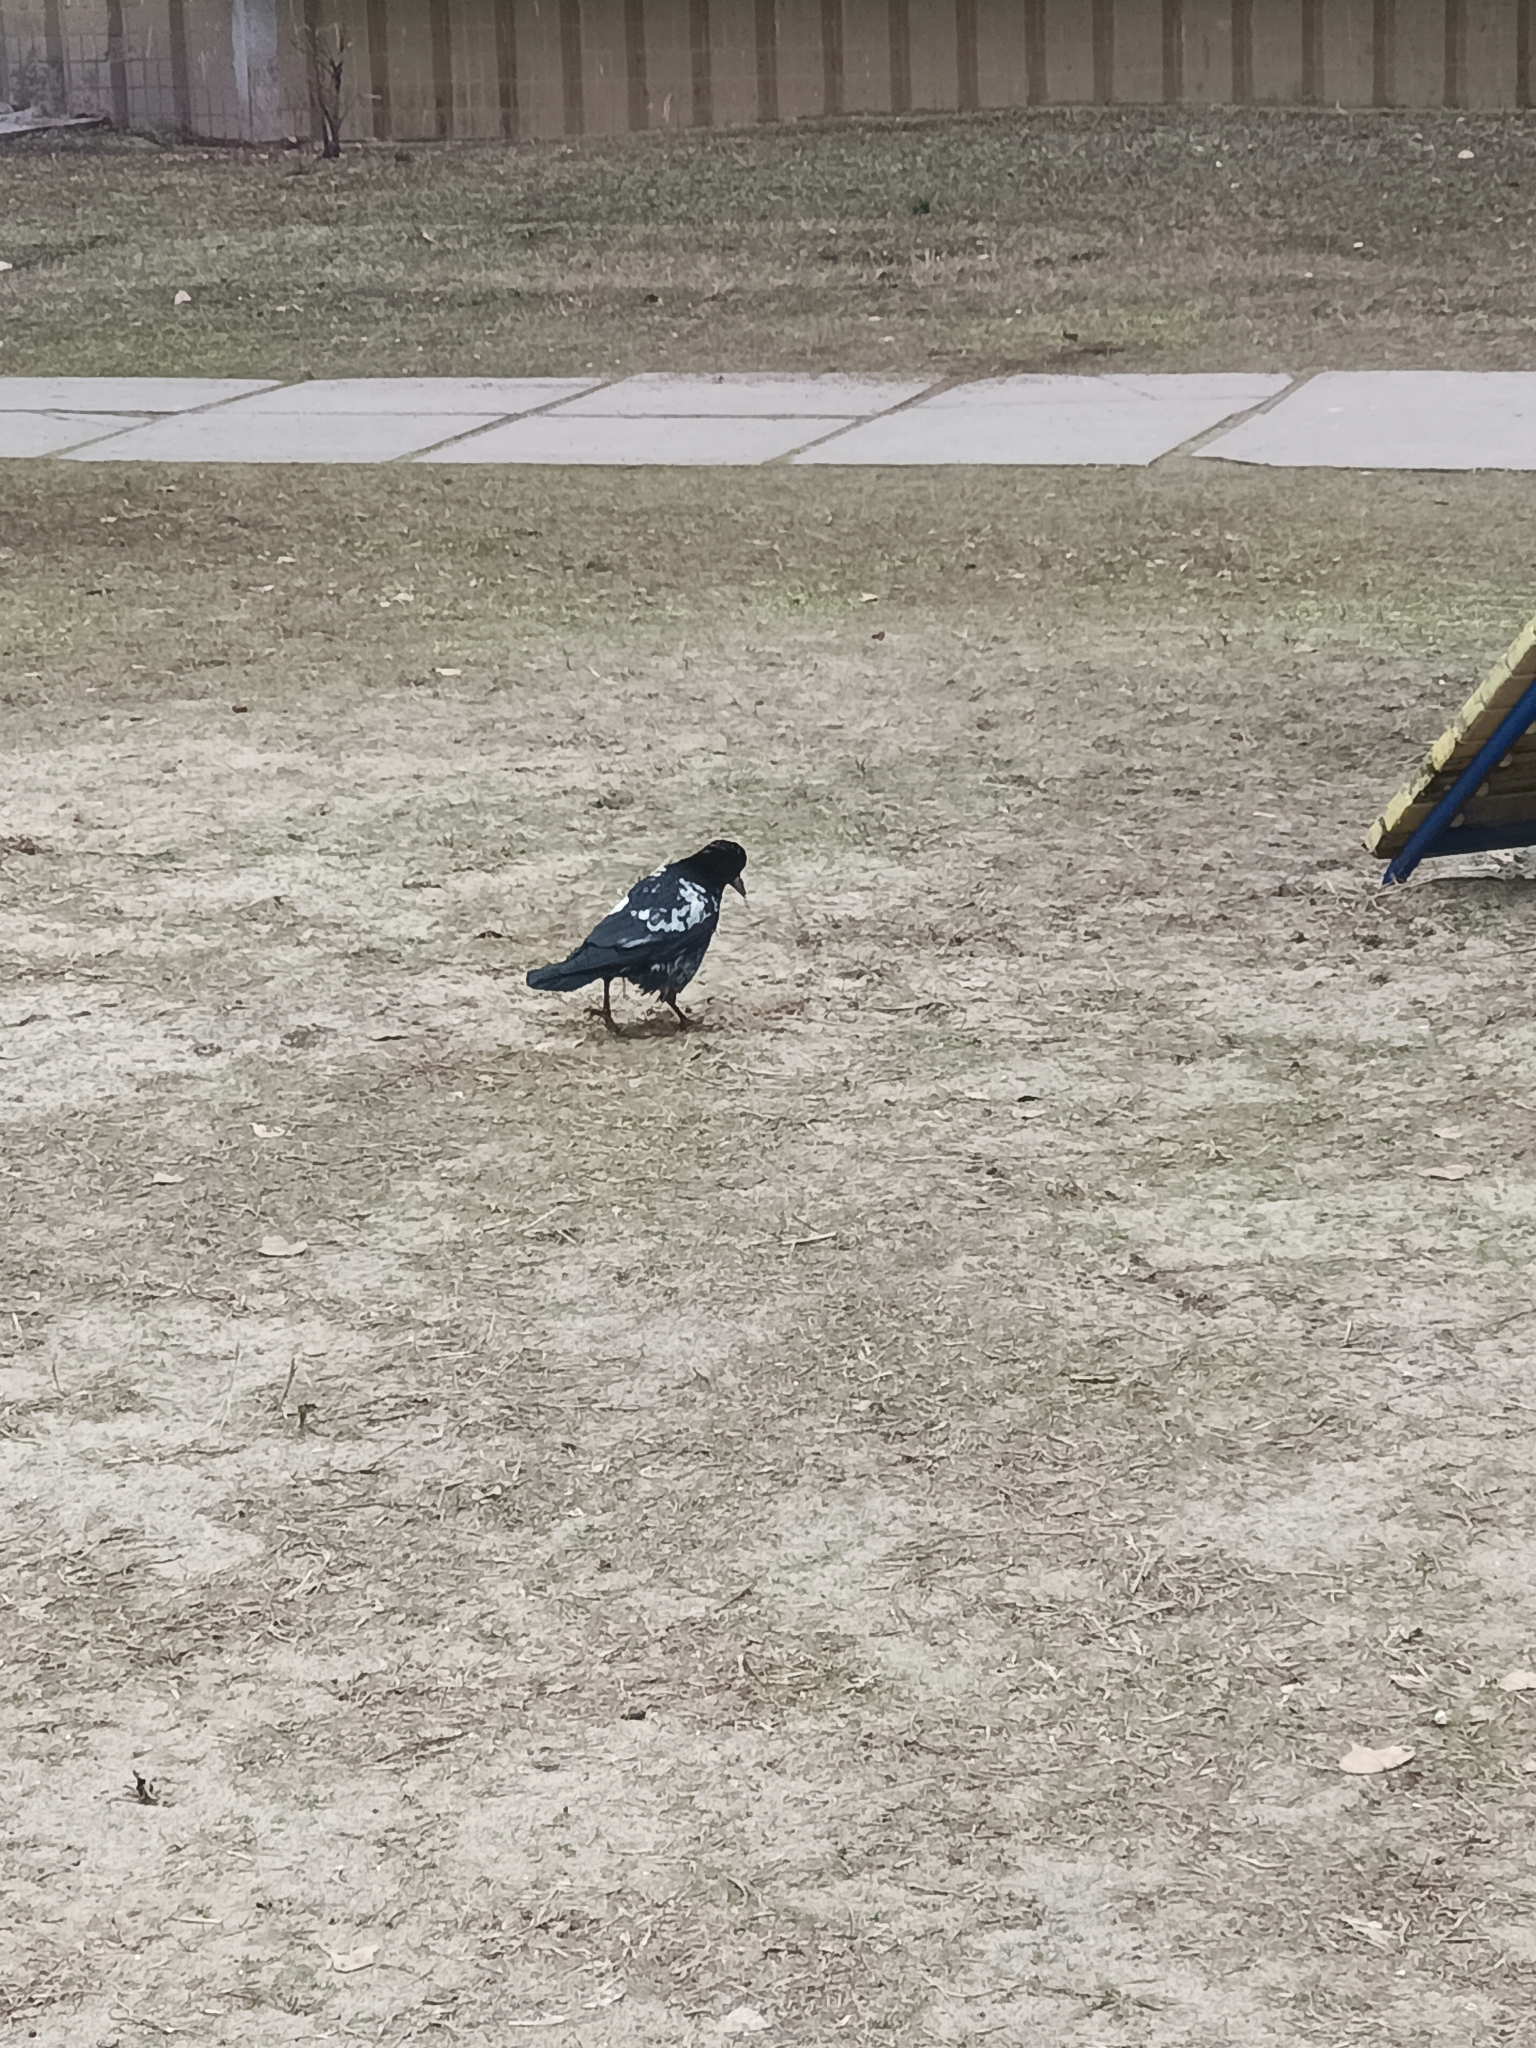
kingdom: Animalia
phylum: Chordata
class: Aves
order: Passeriformes
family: Corvidae
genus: Corvus
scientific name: Corvus frugilegus
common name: Rook
